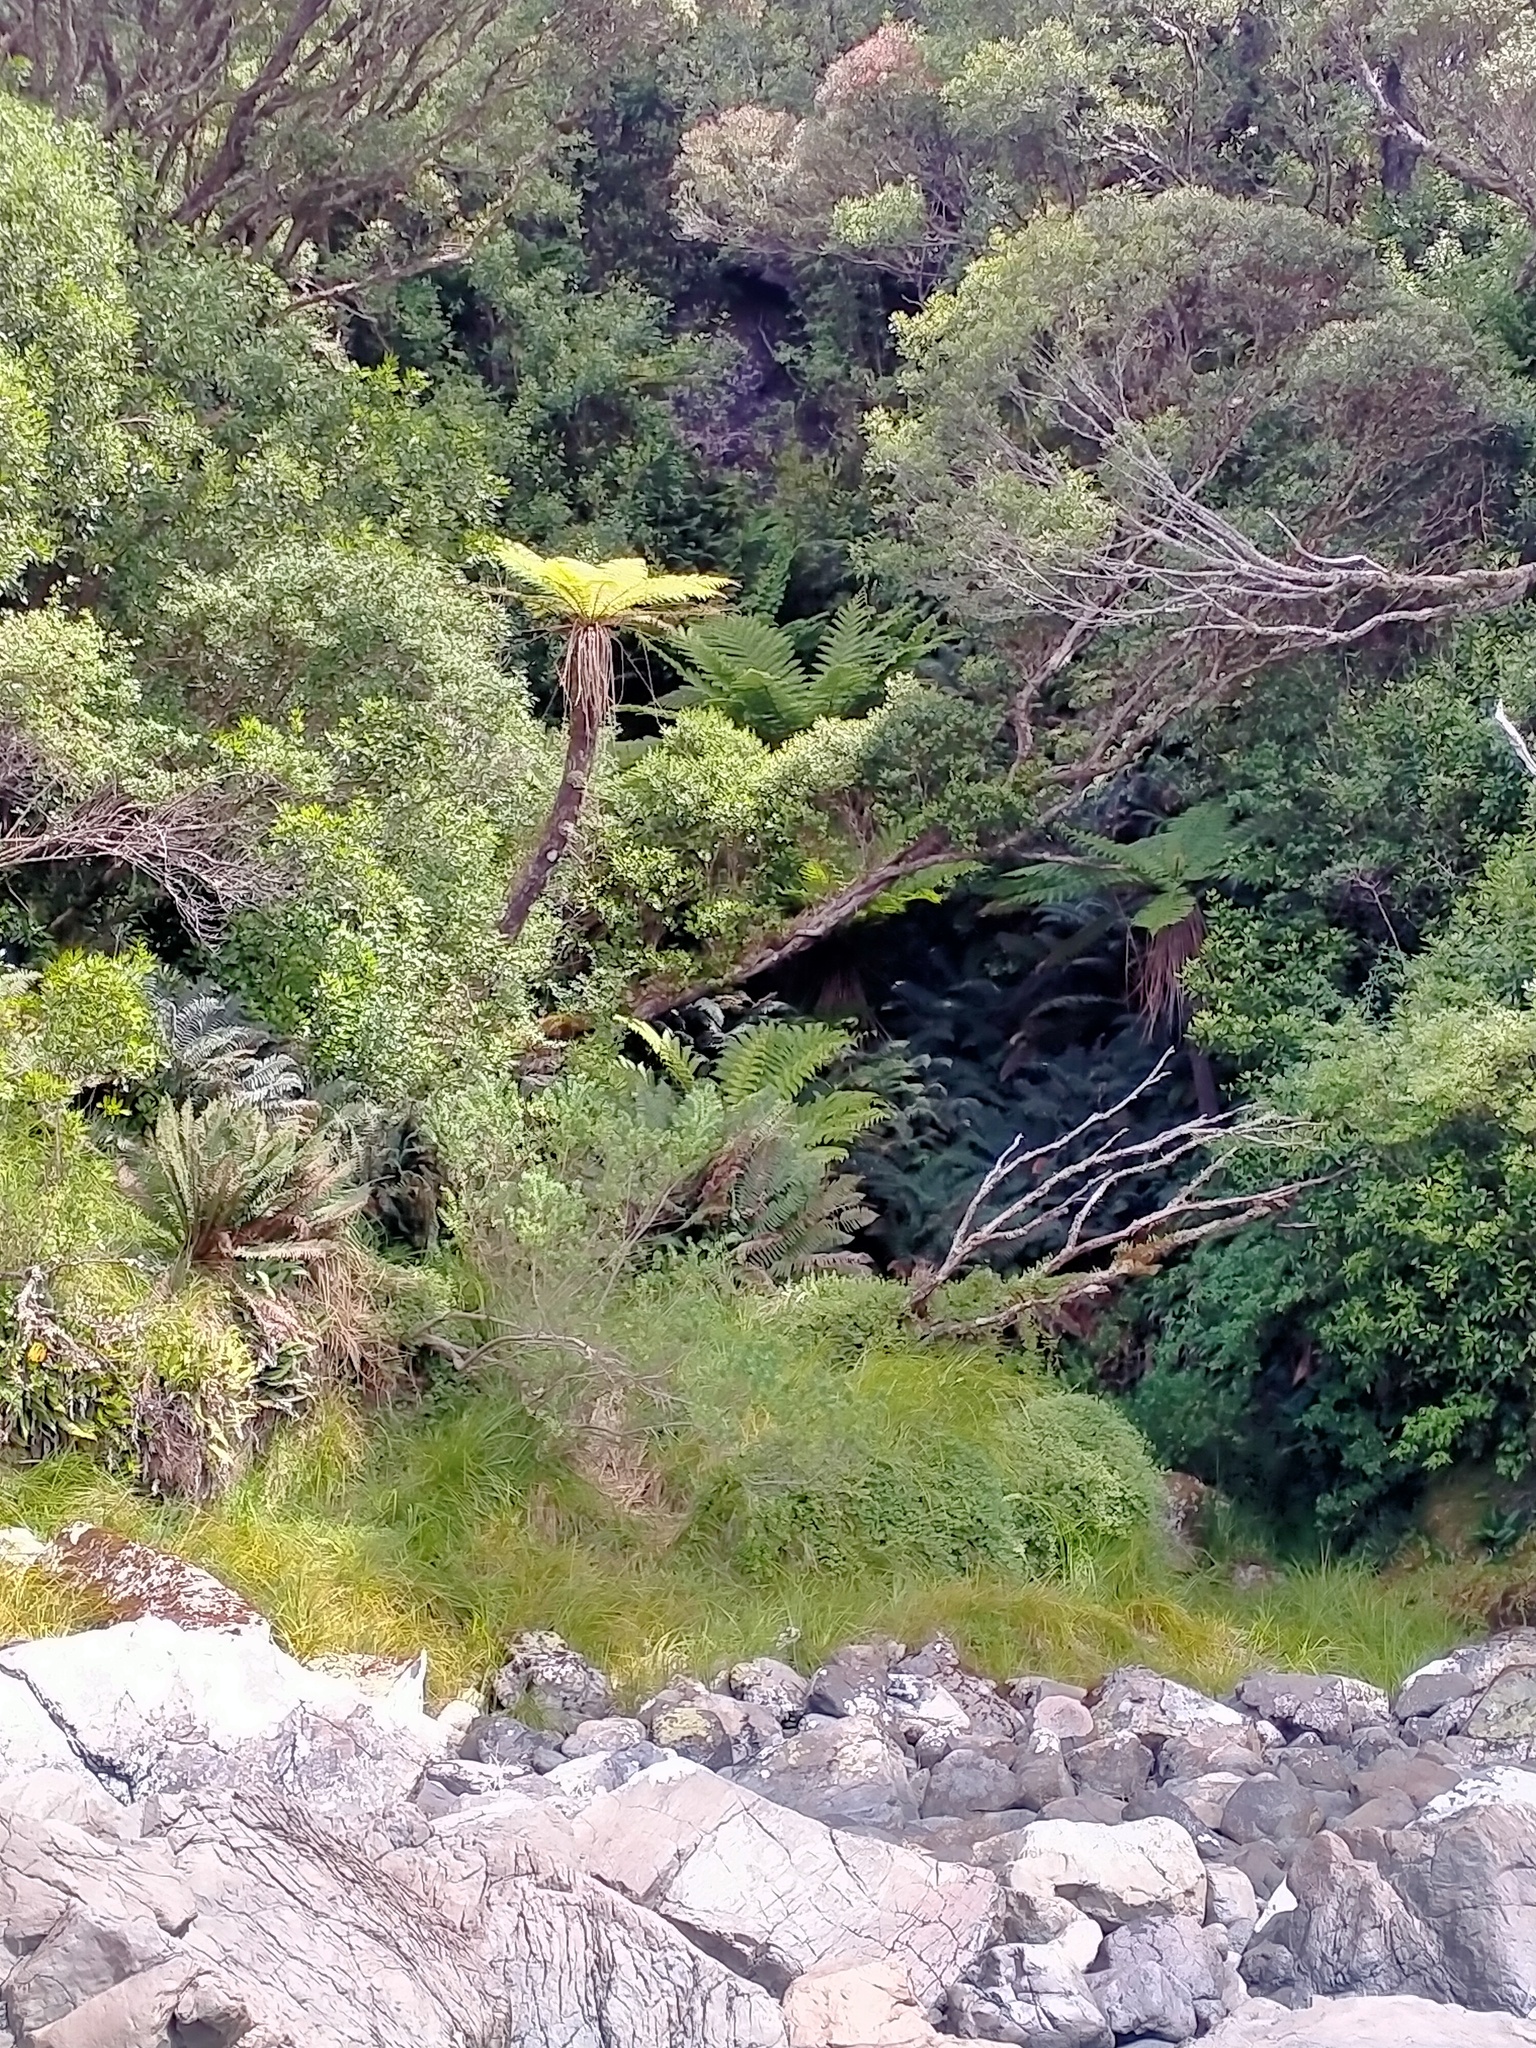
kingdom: Plantae
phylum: Tracheophyta
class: Polypodiopsida
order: Cyatheales
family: Cyatheaceae
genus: Alsophila
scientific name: Alsophila smithii
